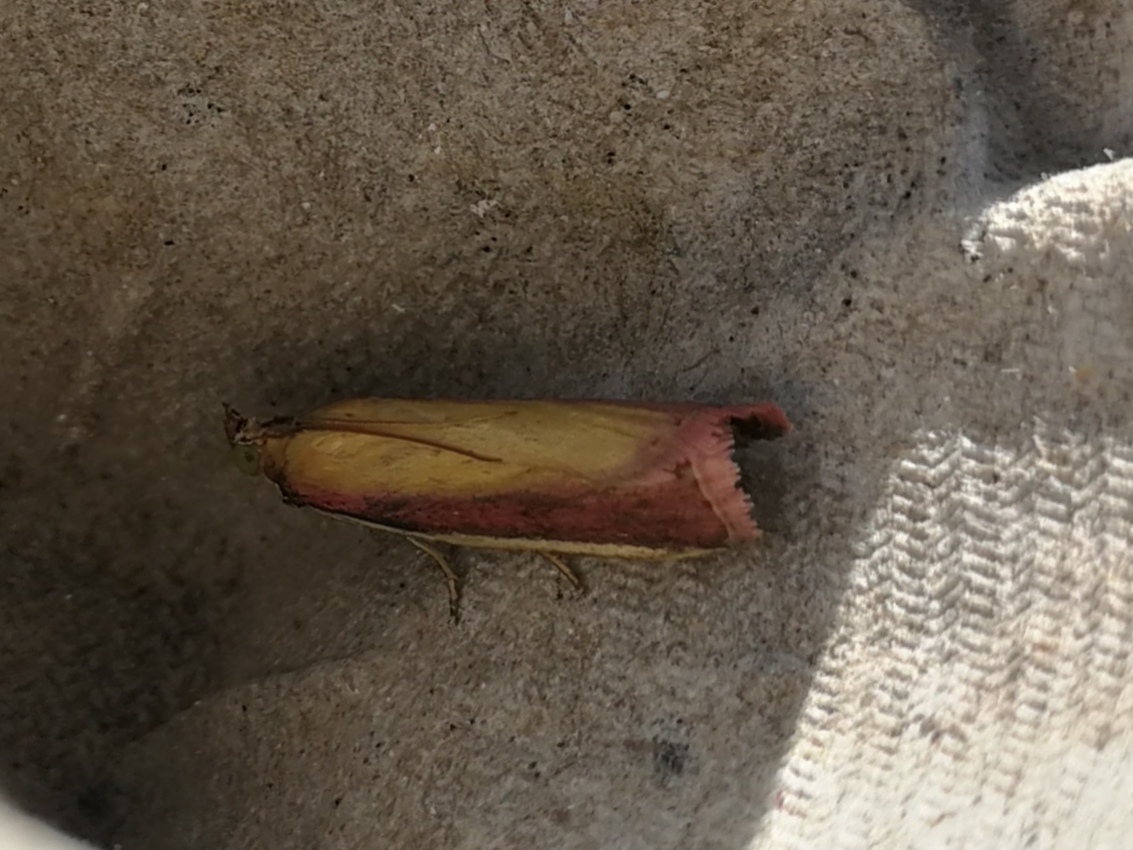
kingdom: Animalia
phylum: Arthropoda
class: Insecta
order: Lepidoptera
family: Pyralidae
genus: Oncocera
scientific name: Oncocera semirubella
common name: Rosy-striped knot-horn
